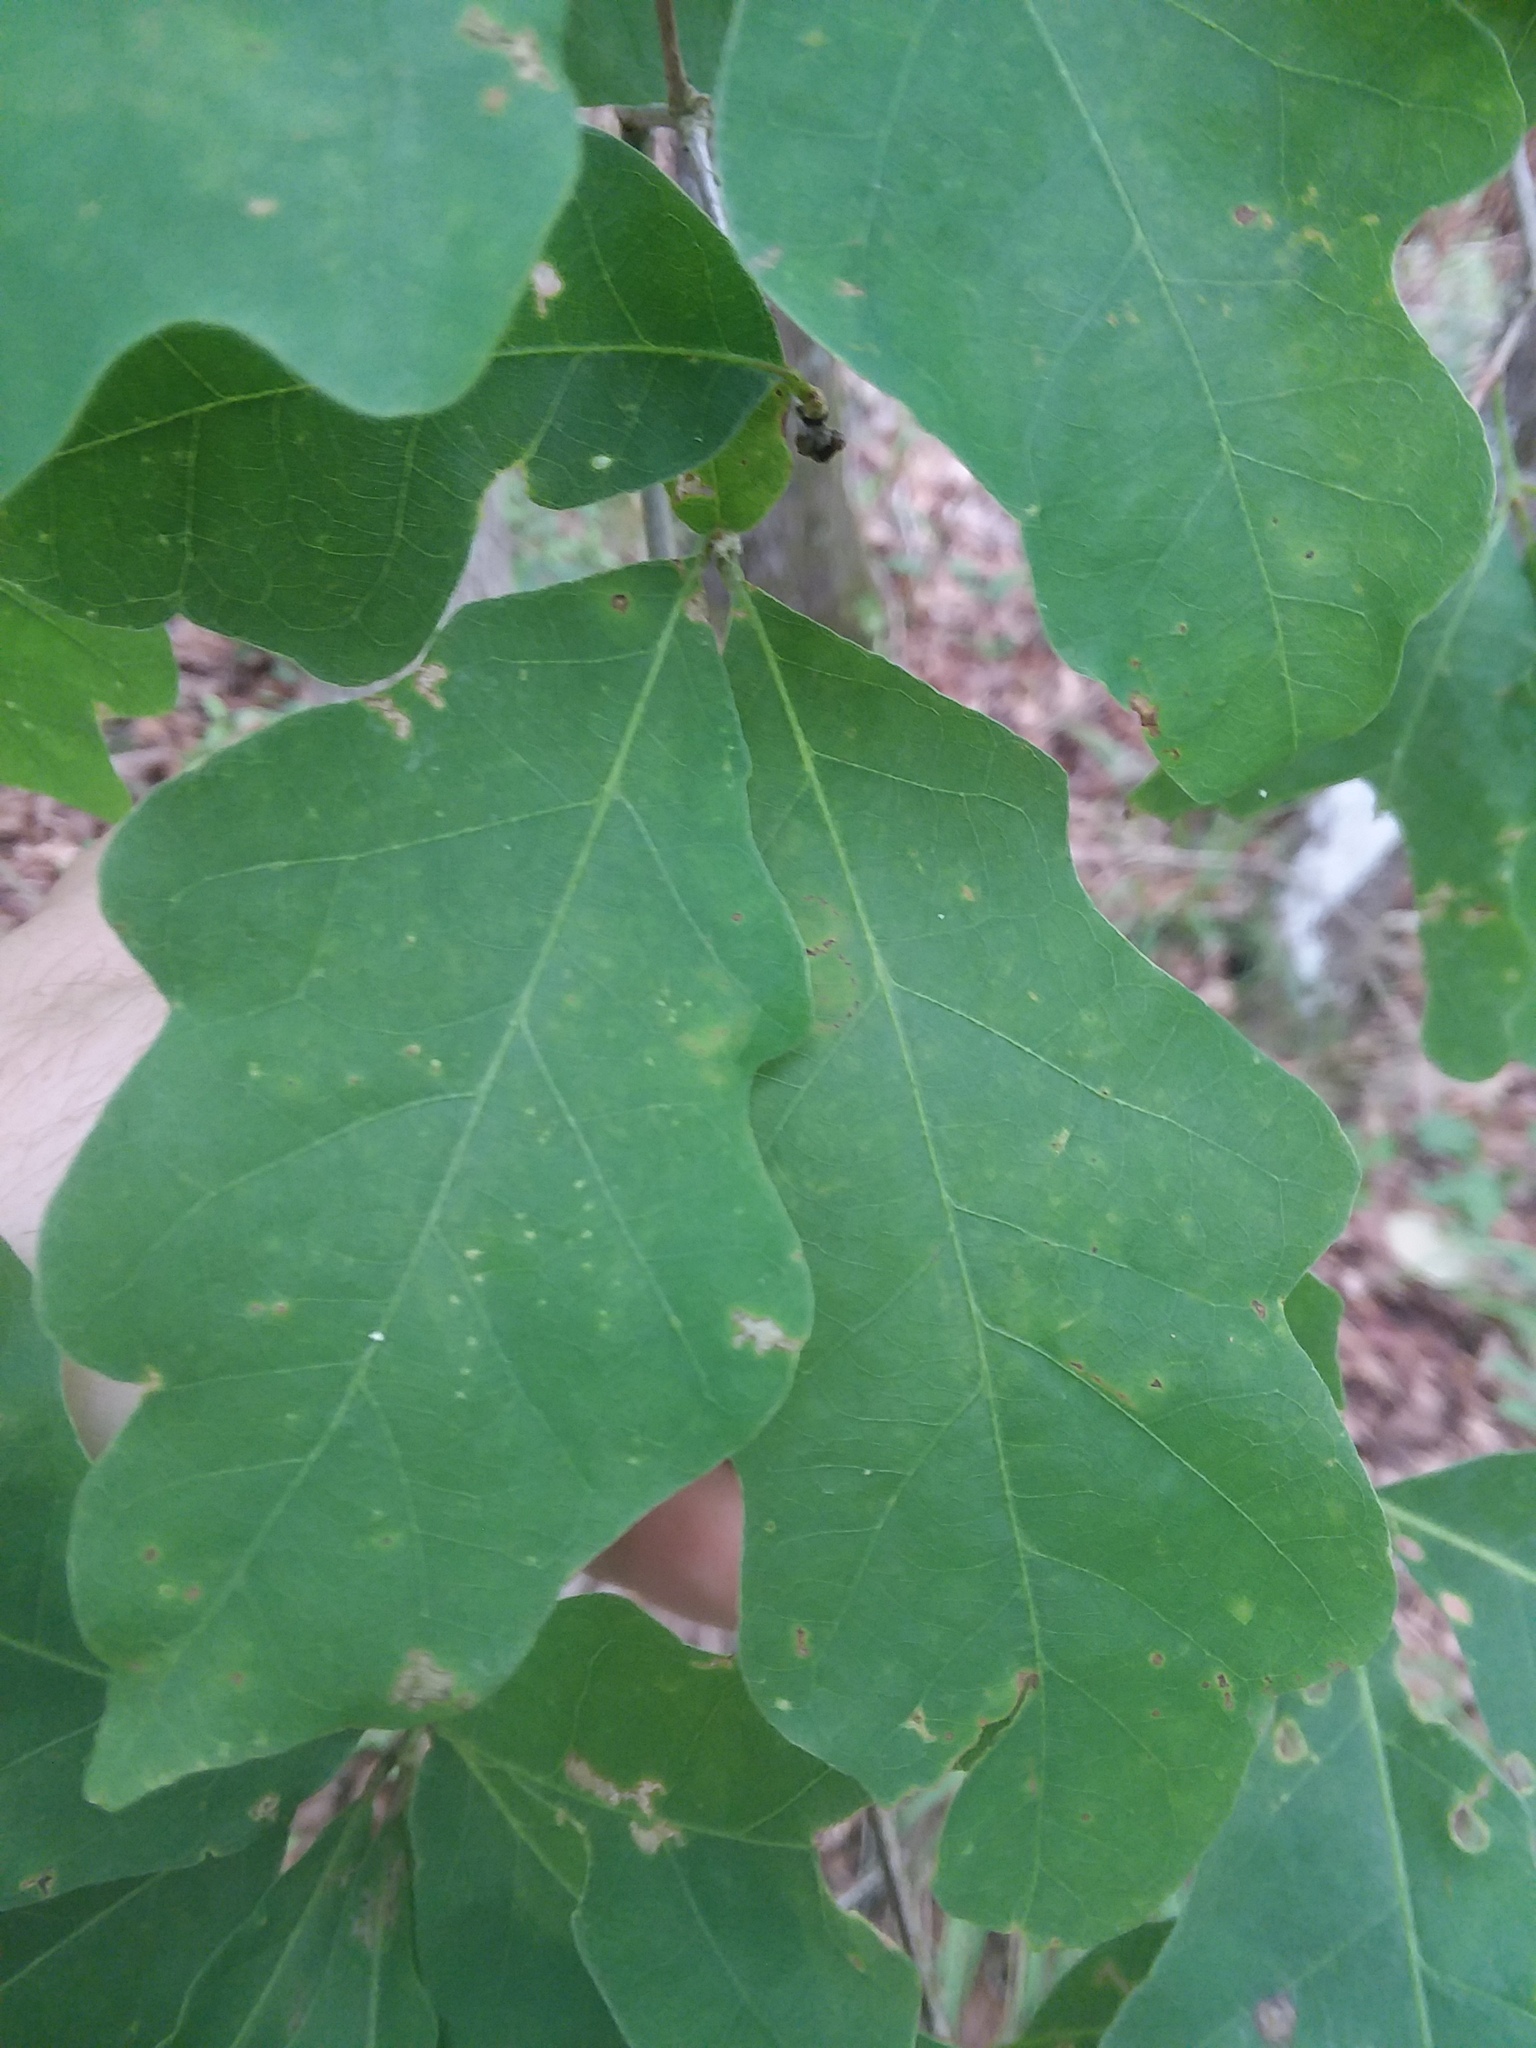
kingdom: Plantae
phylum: Tracheophyta
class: Magnoliopsida
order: Fagales
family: Fagaceae
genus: Quercus
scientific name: Quercus austrina
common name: Bastard white oak
